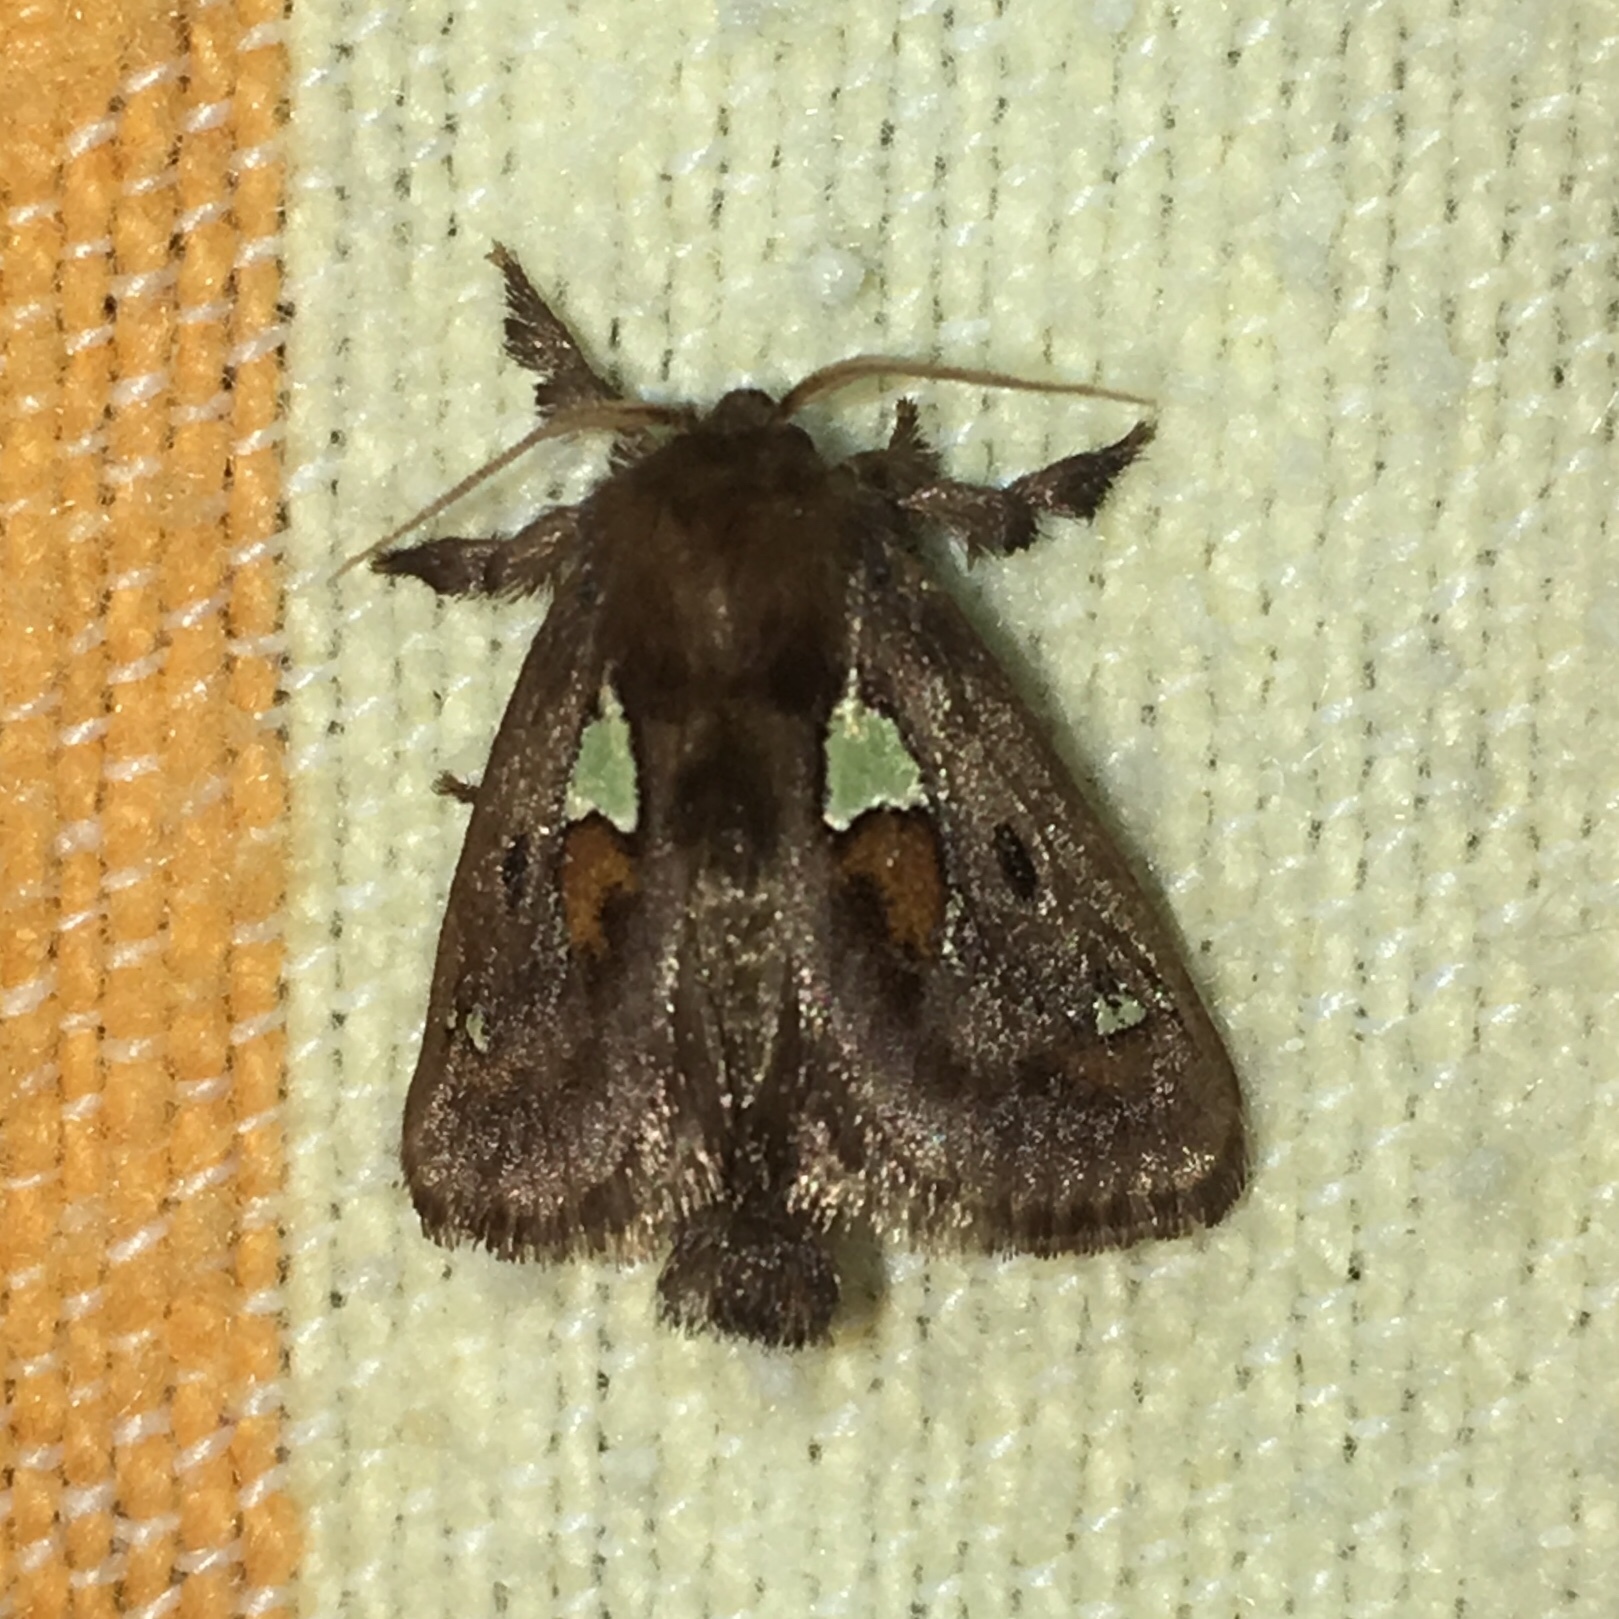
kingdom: Animalia
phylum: Arthropoda
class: Insecta
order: Lepidoptera
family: Limacodidae
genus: Euclea
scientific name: Euclea delphinii
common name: Spiny oak-slug moth
